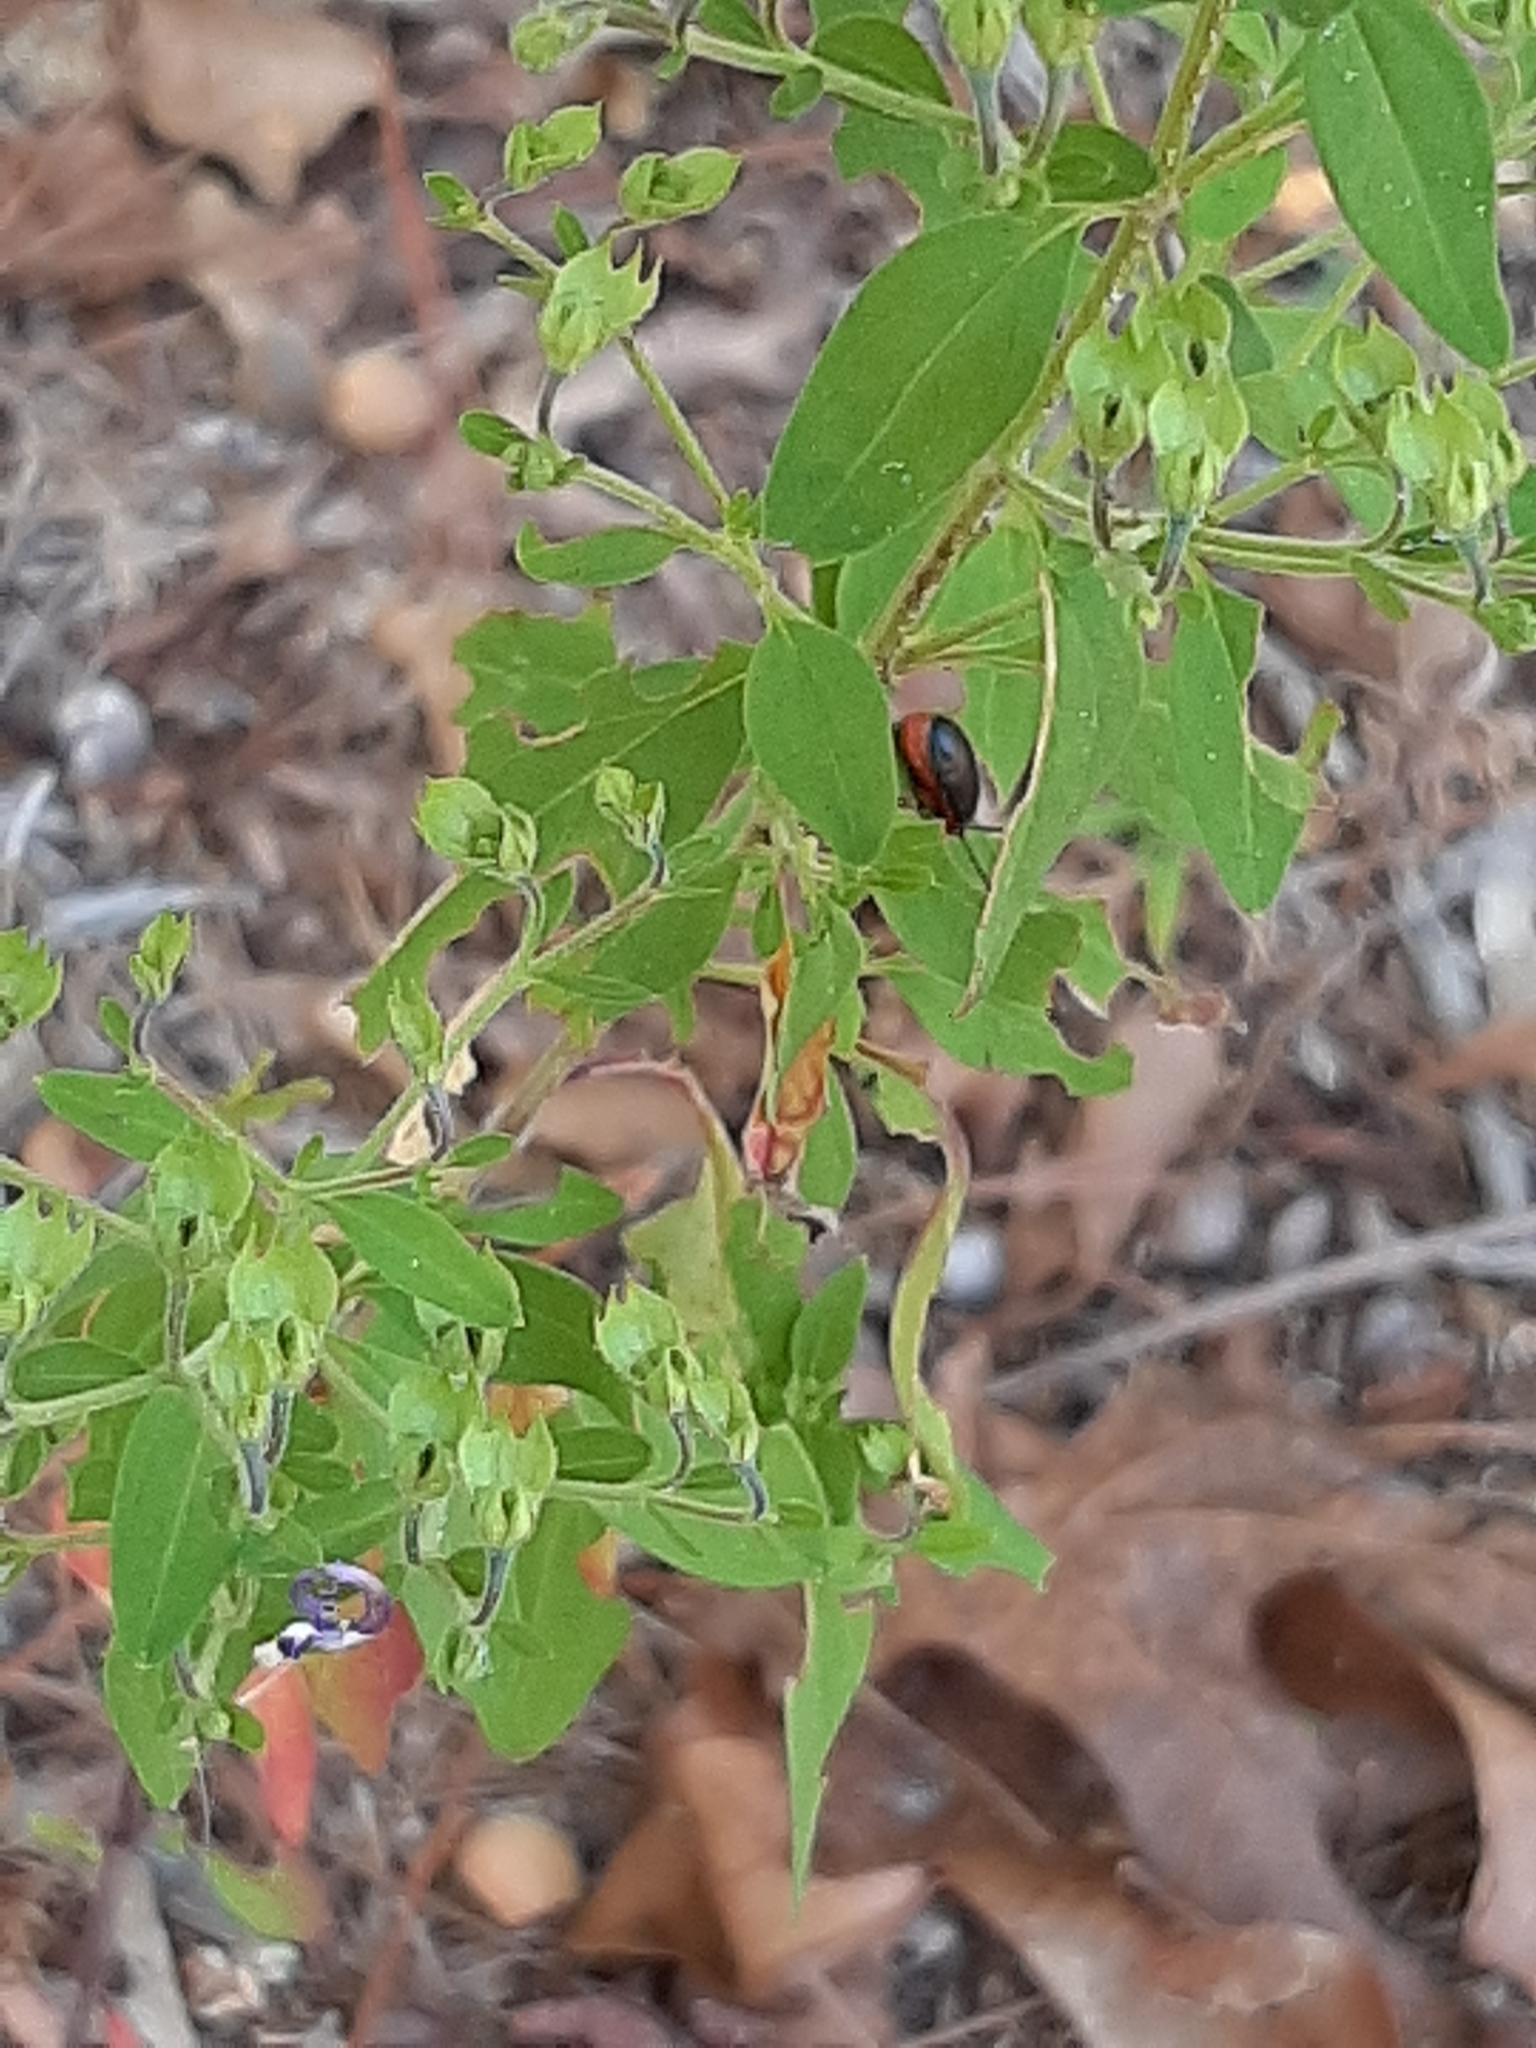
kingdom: Plantae
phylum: Tracheophyta
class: Magnoliopsida
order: Lamiales
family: Lamiaceae
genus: Trichostema
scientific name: Trichostema dichotomum
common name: Bastard pennyroyal
